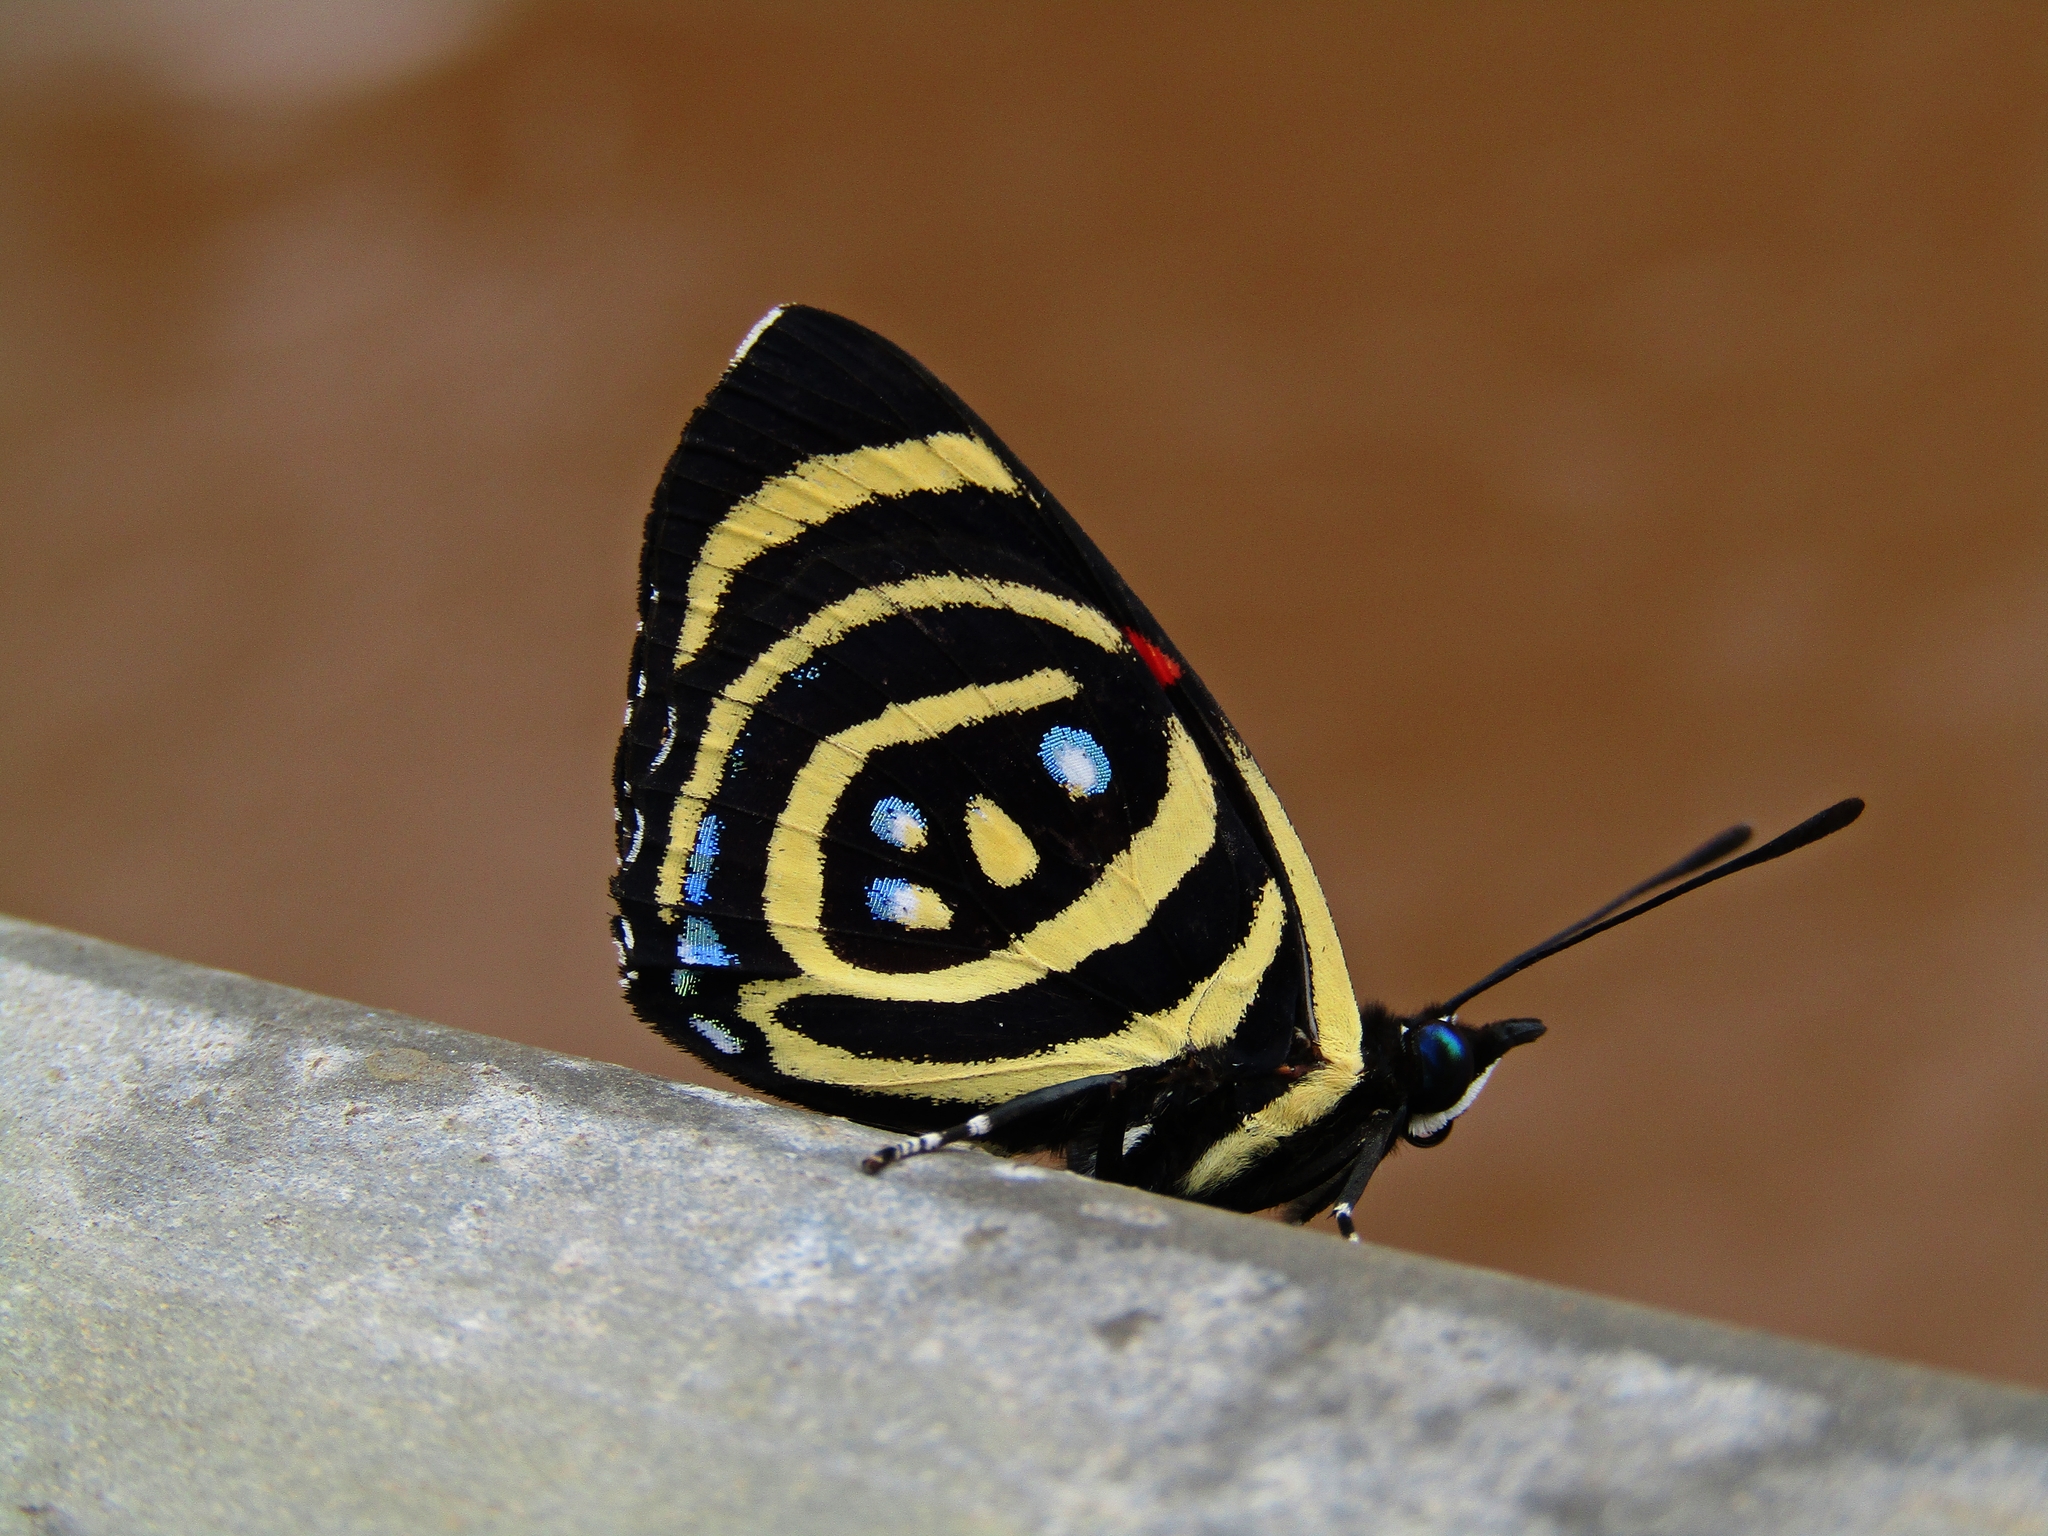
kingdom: Animalia
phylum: Arthropoda
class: Insecta
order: Lepidoptera
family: Nymphalidae
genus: Catagramma
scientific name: Catagramma Callicore hydaspes
